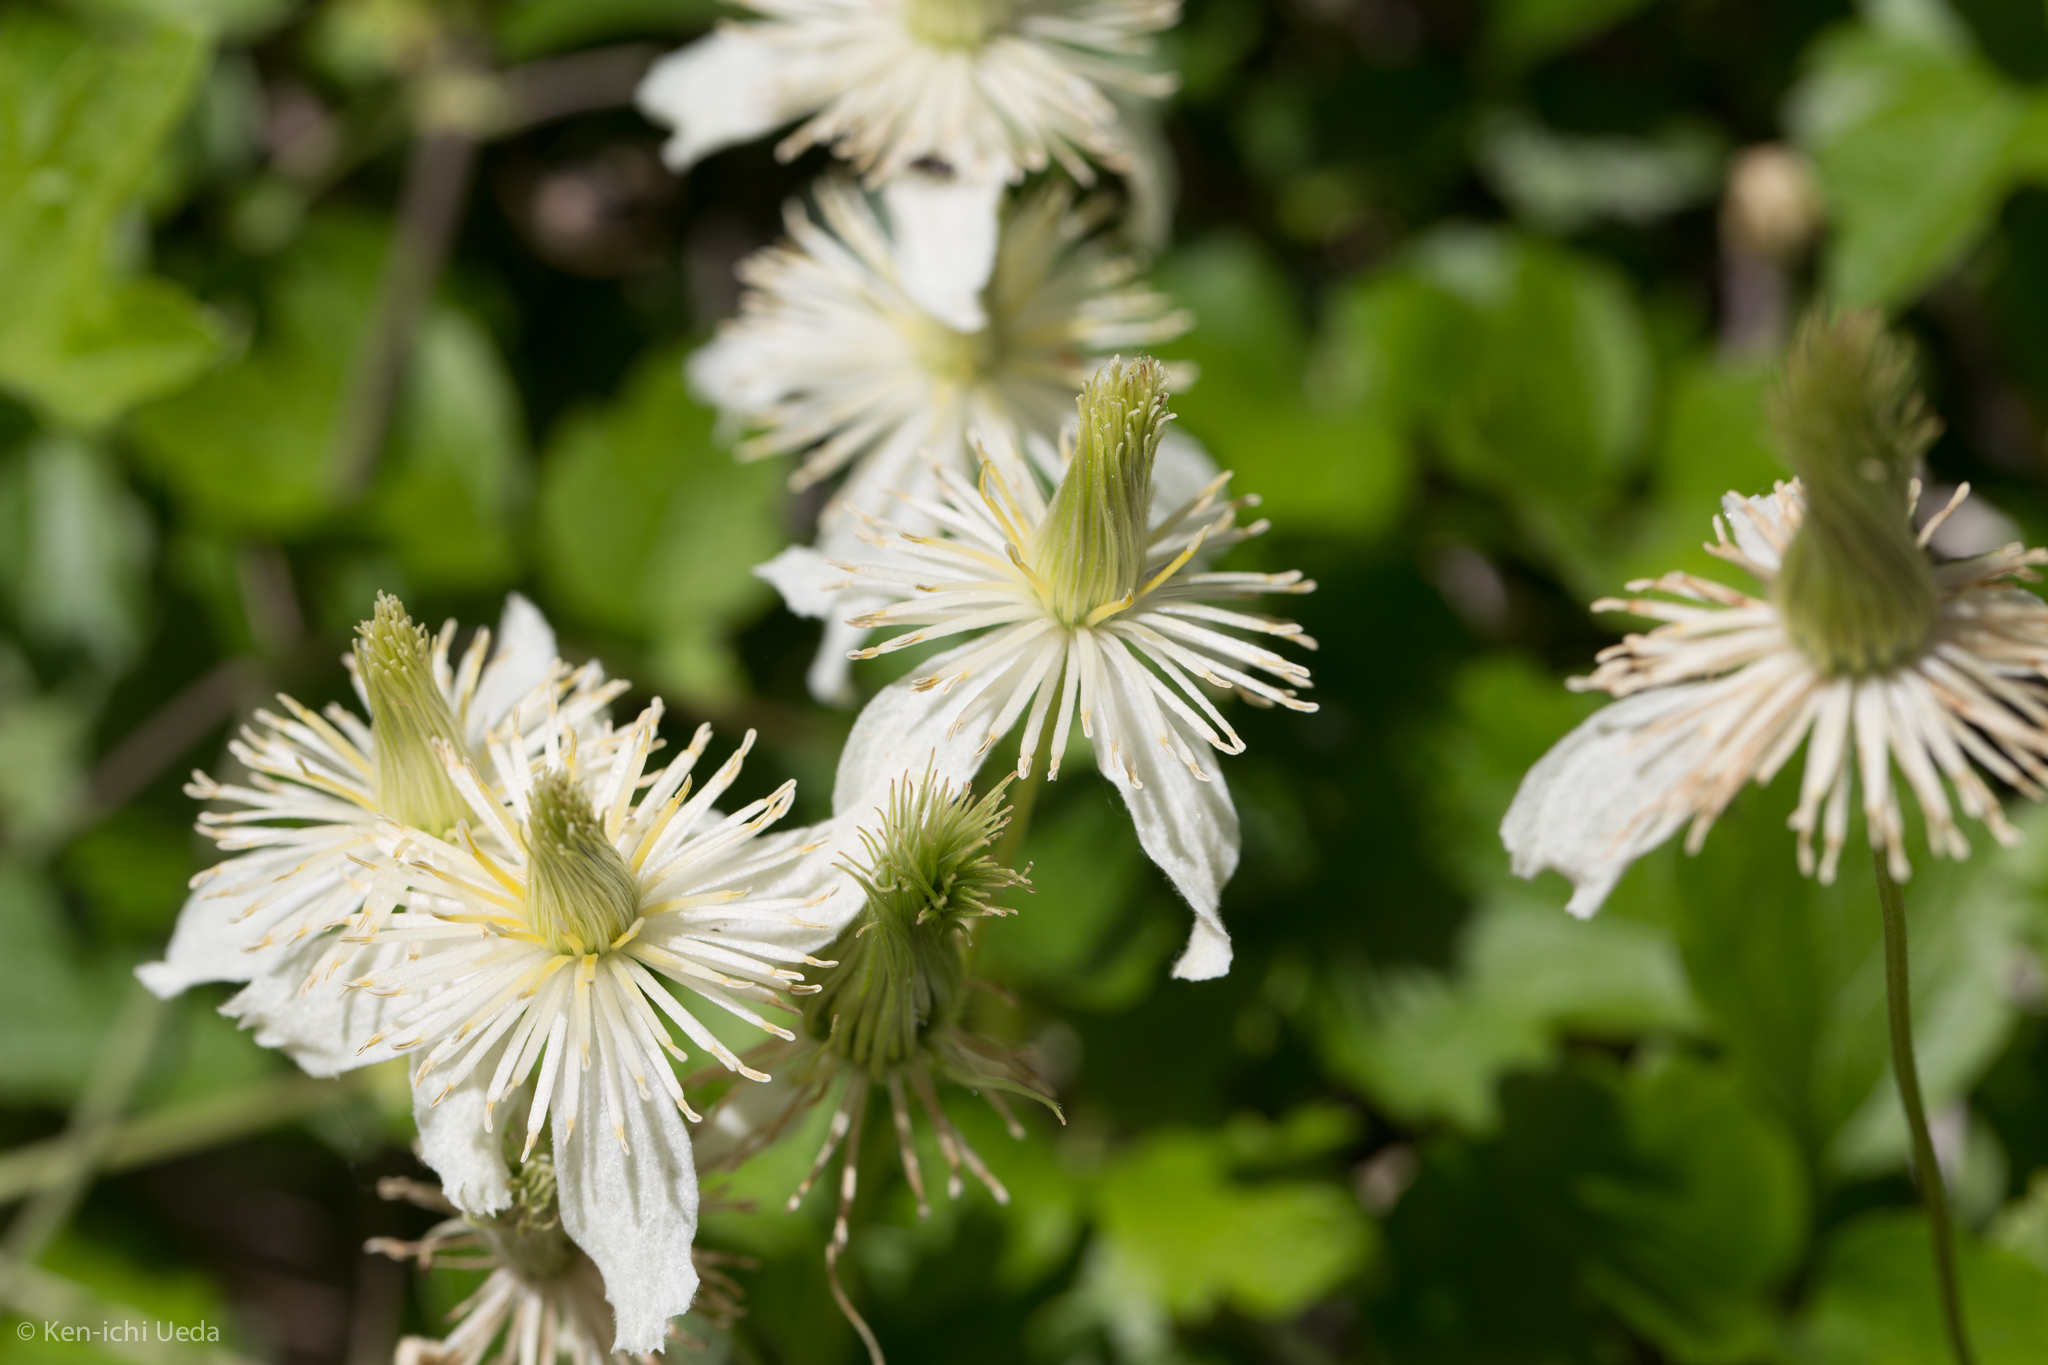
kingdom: Plantae
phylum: Tracheophyta
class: Magnoliopsida
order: Ranunculales
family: Ranunculaceae
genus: Clematis
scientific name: Clematis lasiantha
